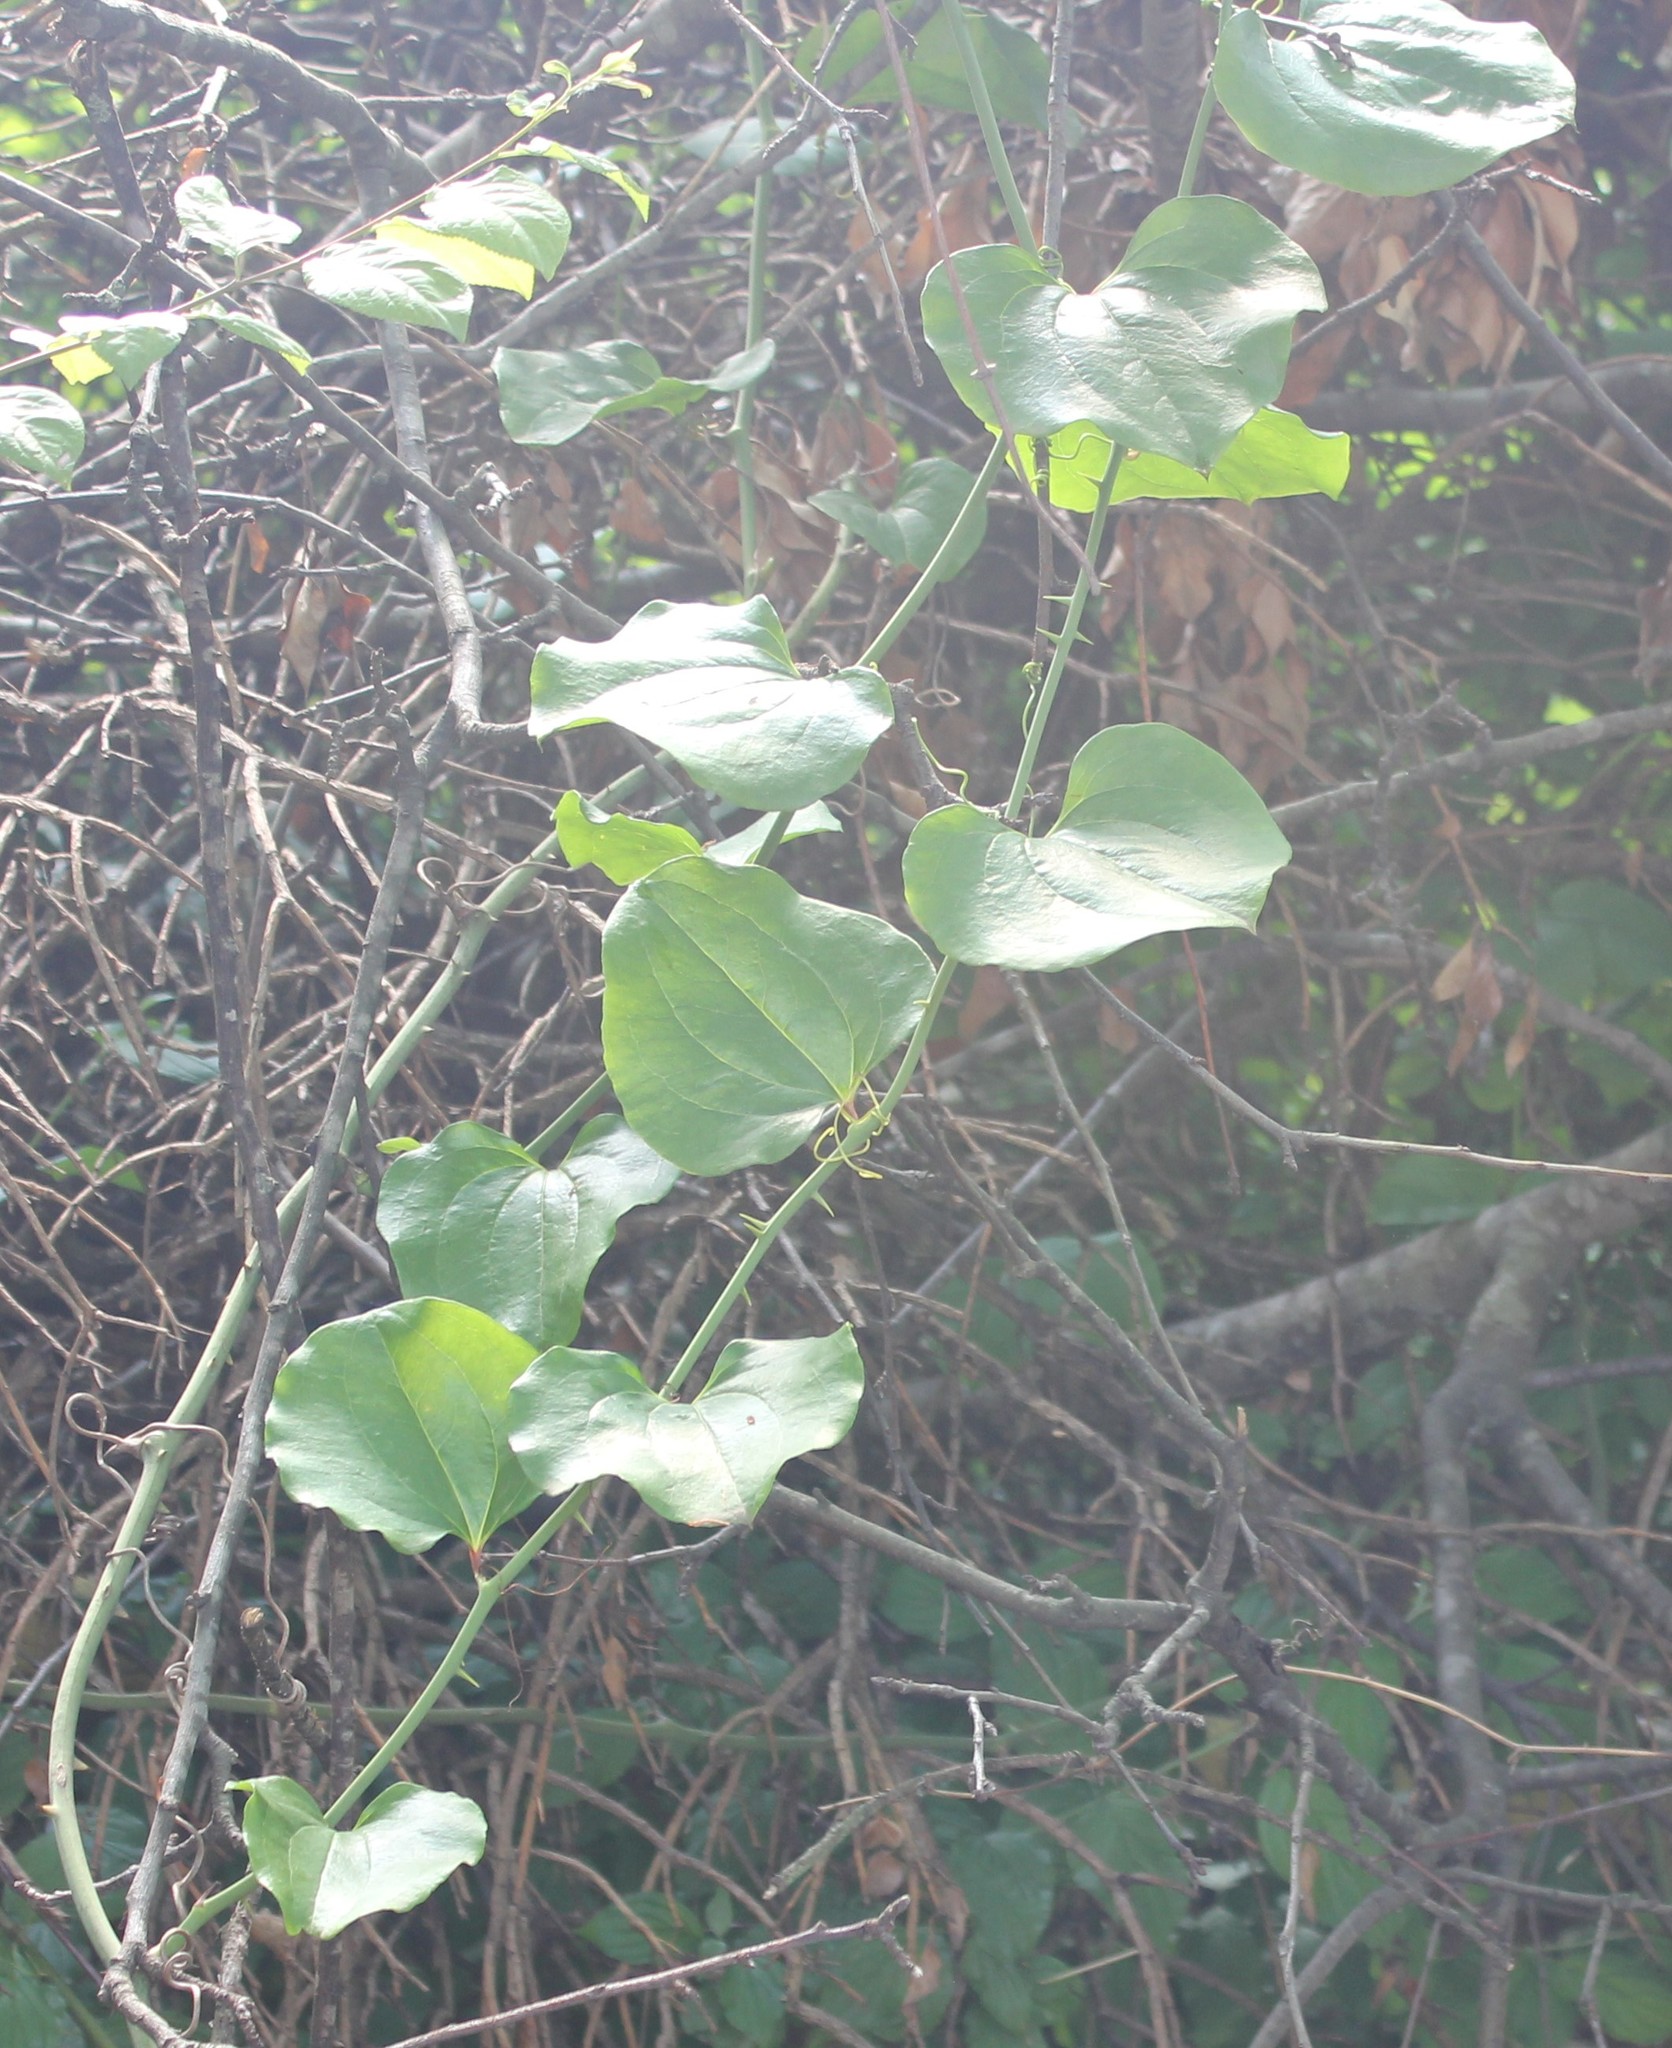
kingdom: Plantae
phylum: Tracheophyta
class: Liliopsida
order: Liliales
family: Smilacaceae
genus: Smilax
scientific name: Smilax excelsa
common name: Larger smilax
